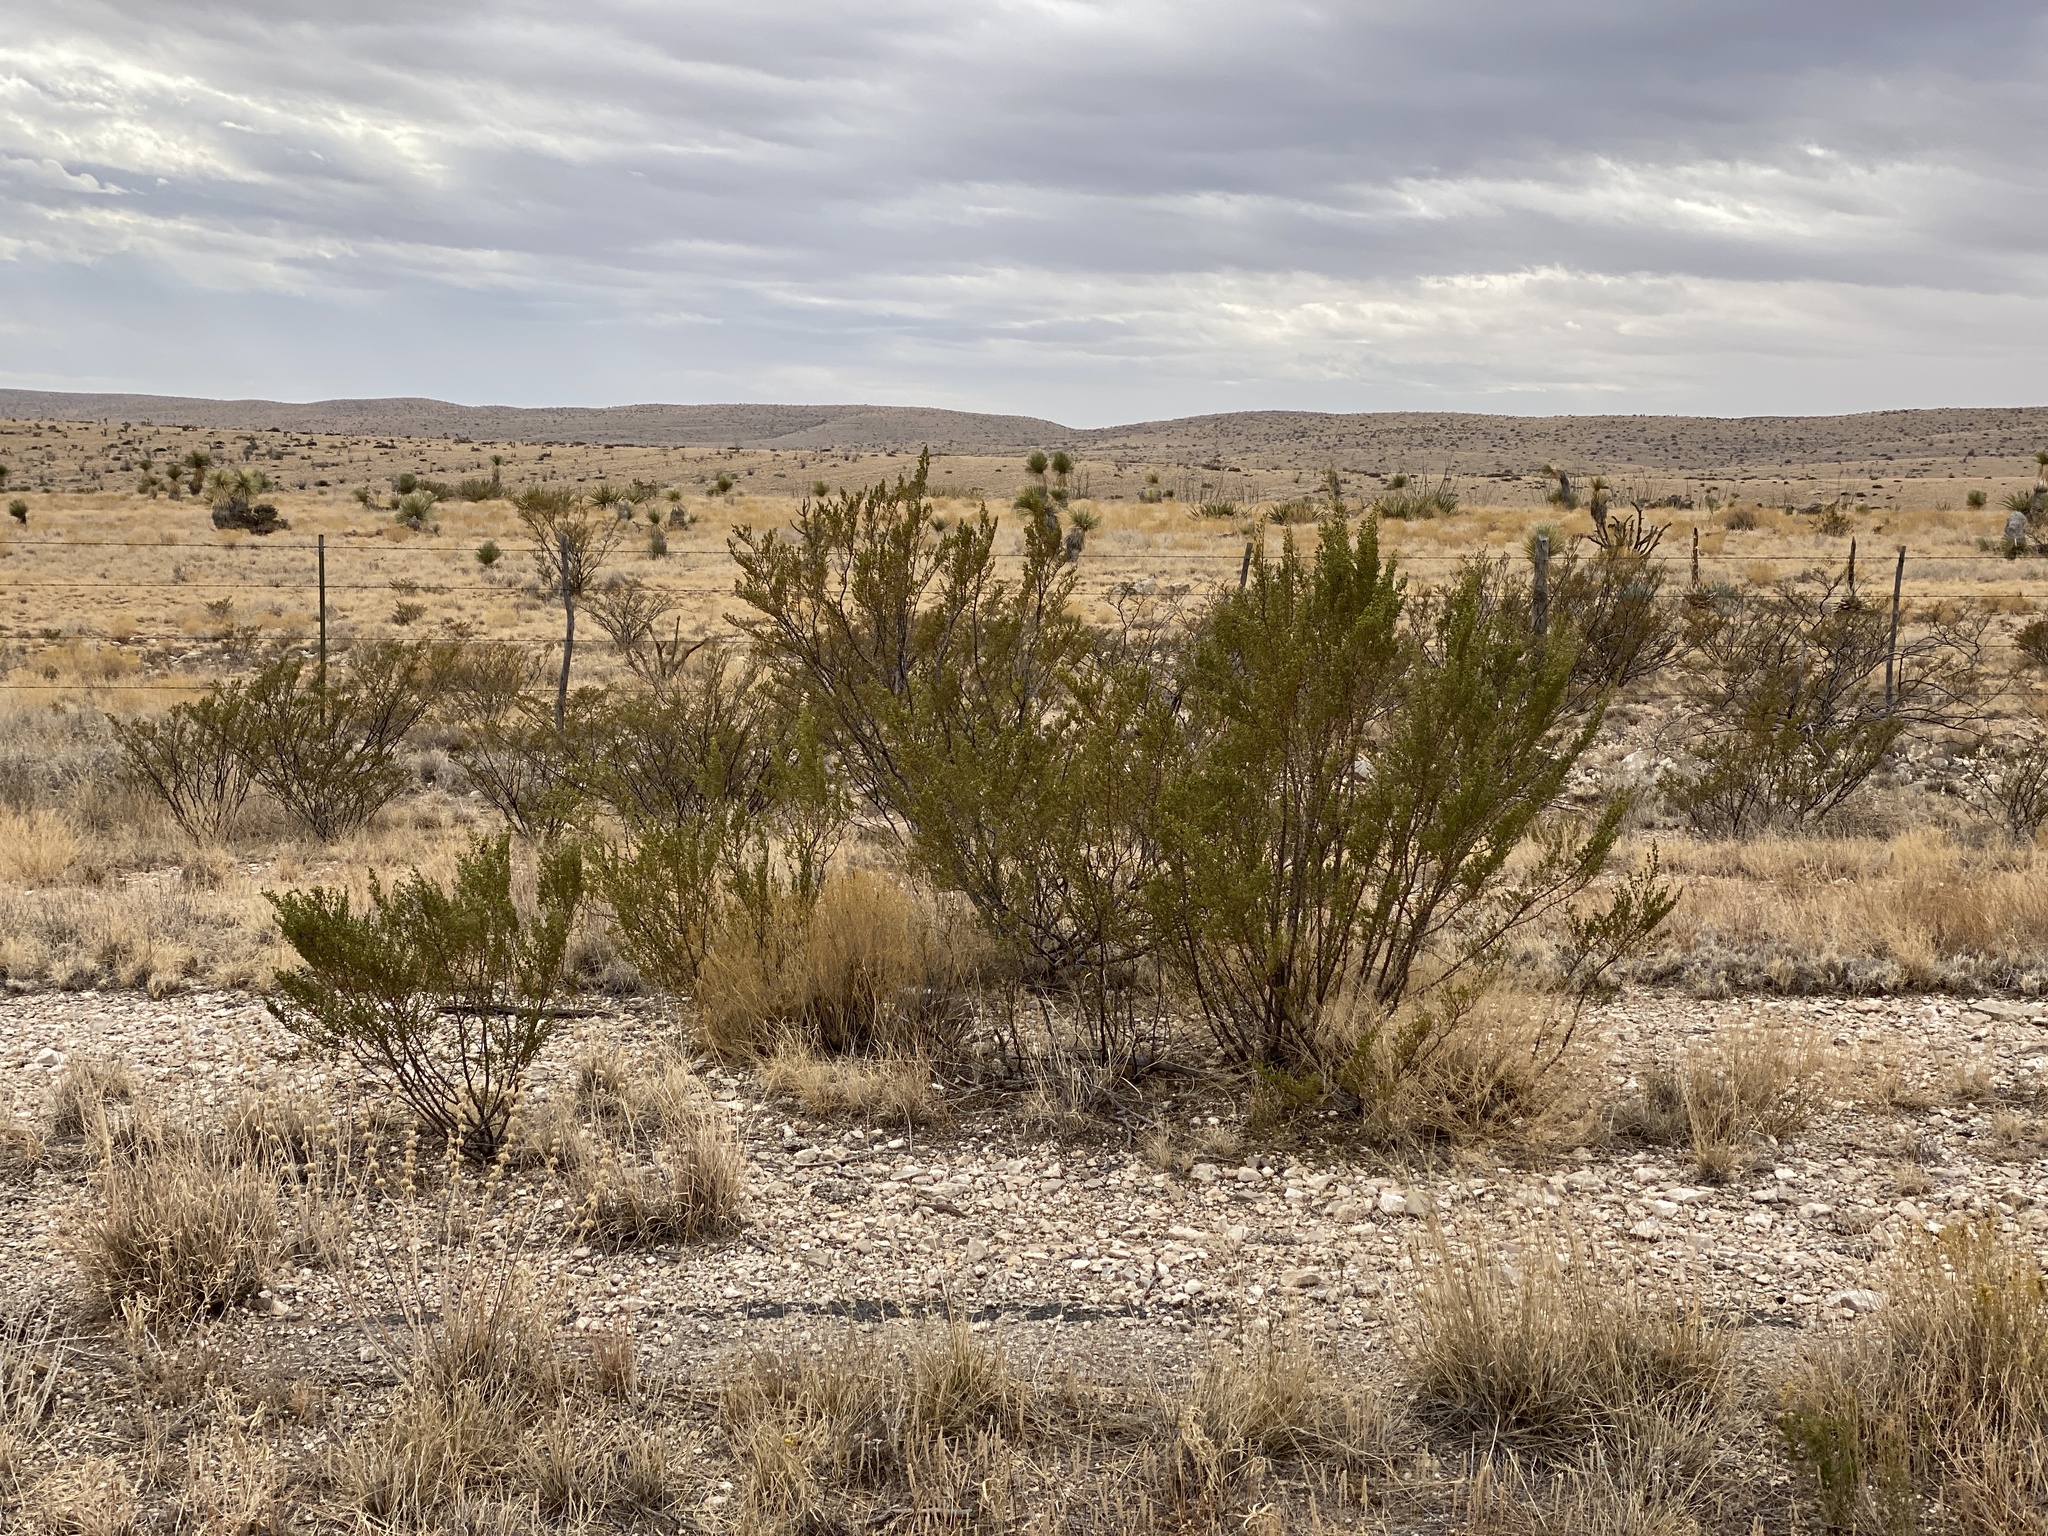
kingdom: Plantae
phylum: Tracheophyta
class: Magnoliopsida
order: Zygophyllales
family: Zygophyllaceae
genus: Larrea
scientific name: Larrea tridentata
